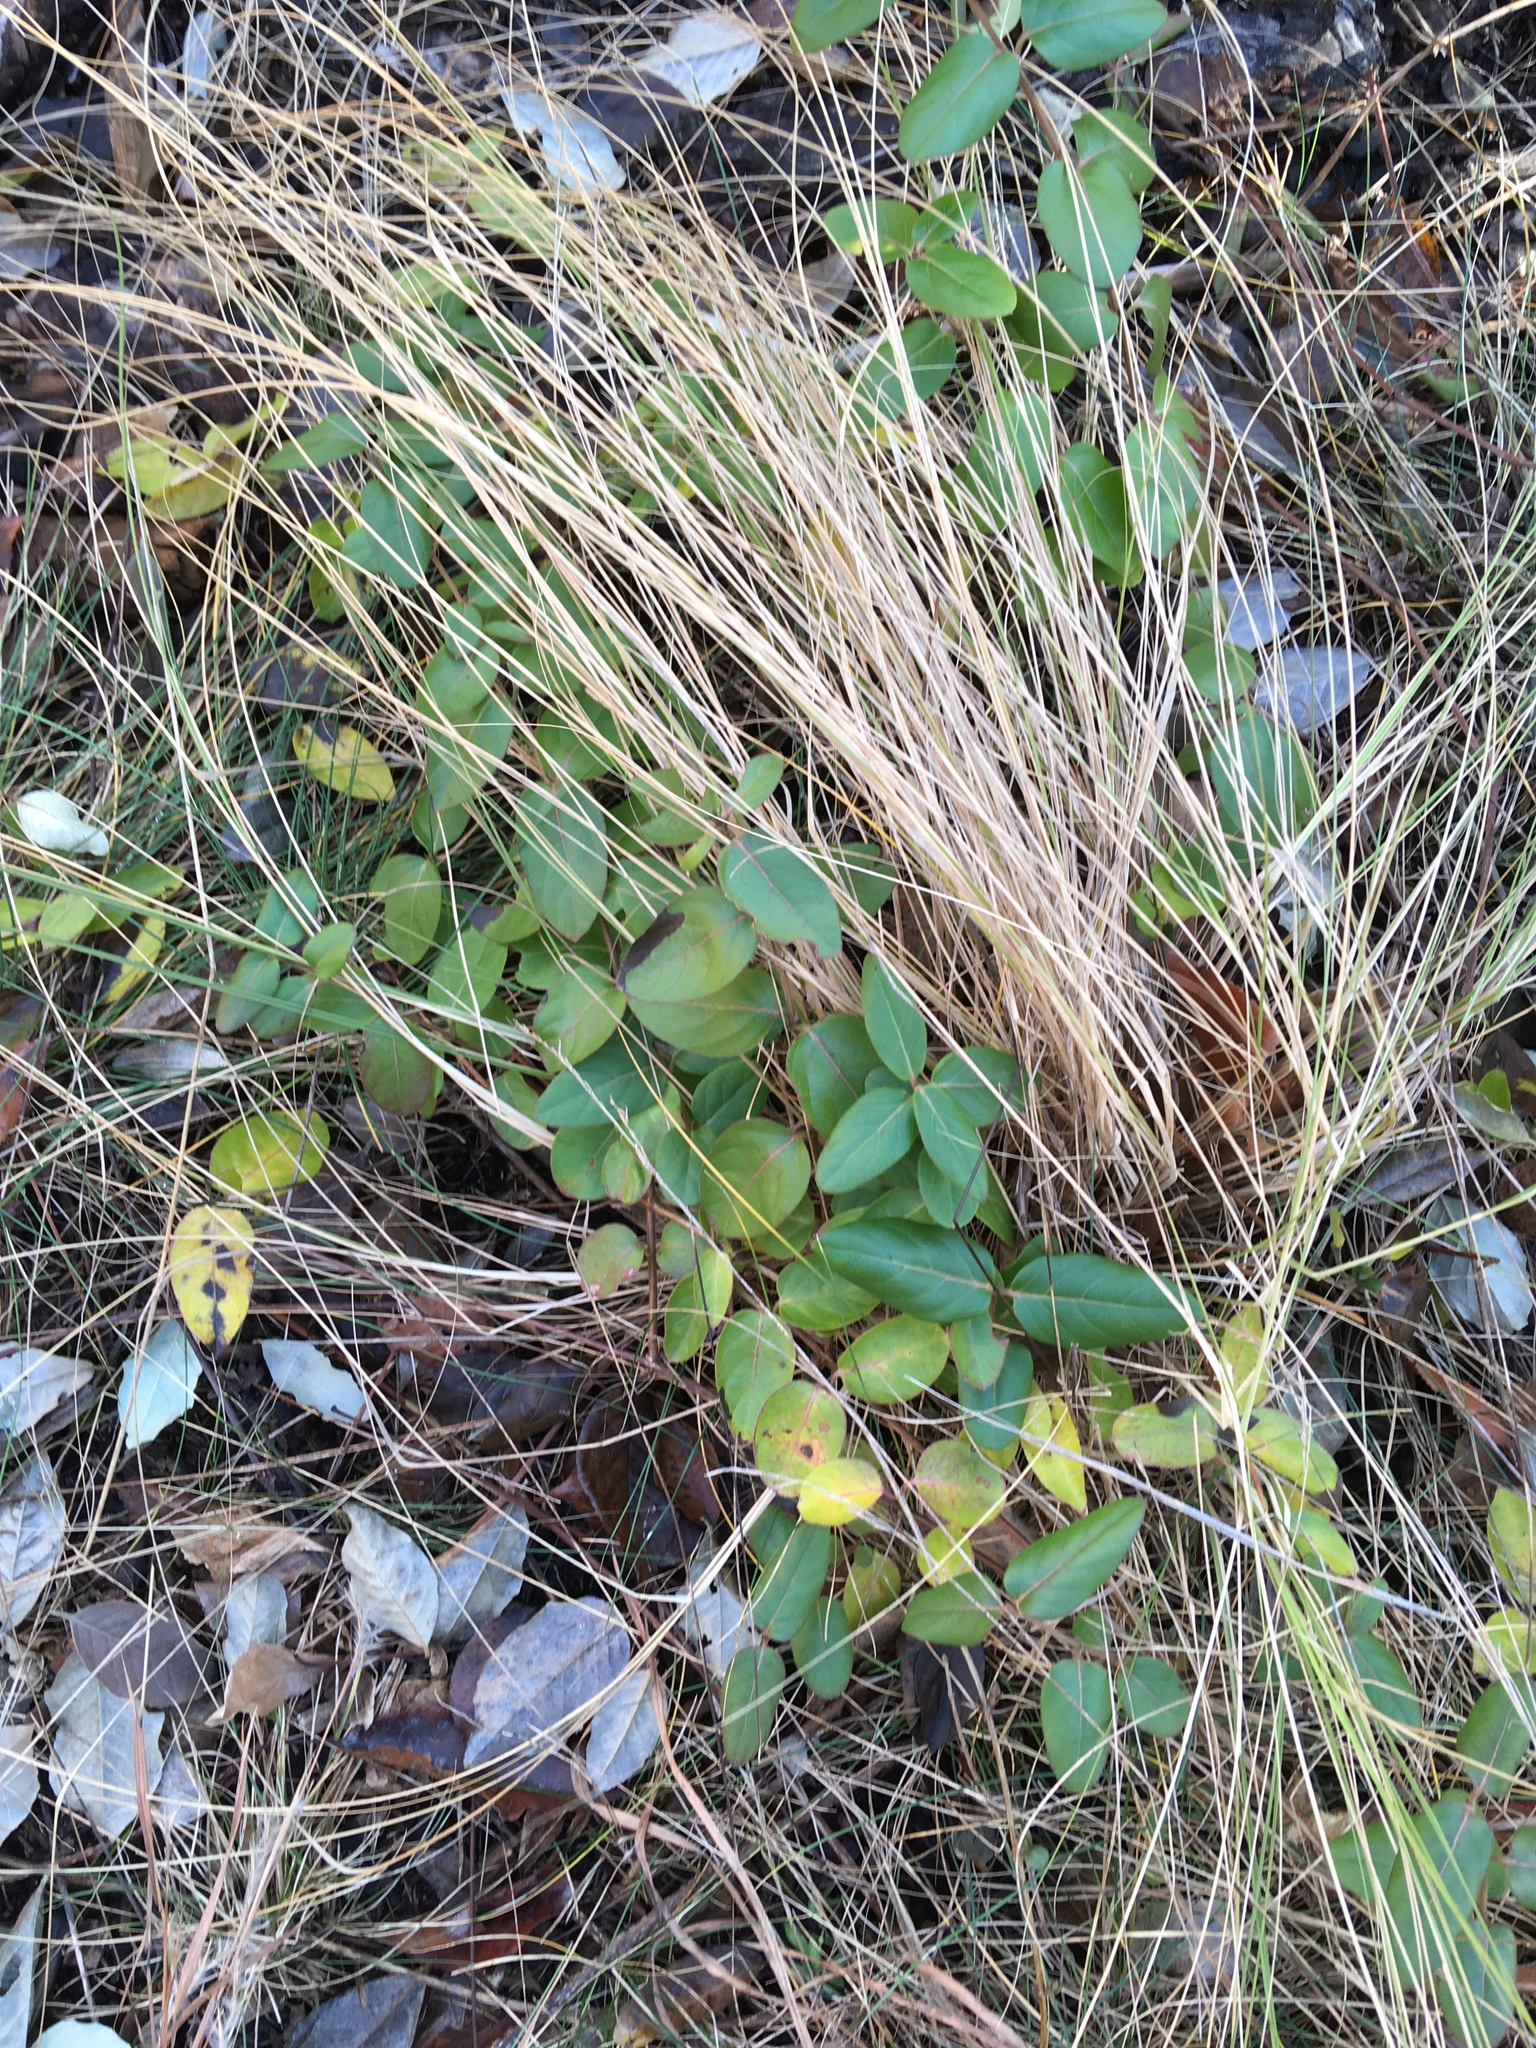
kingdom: Plantae
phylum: Tracheophyta
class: Magnoliopsida
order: Dipsacales
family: Caprifoliaceae
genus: Lonicera
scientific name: Lonicera japonica
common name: Japanese honeysuckle
